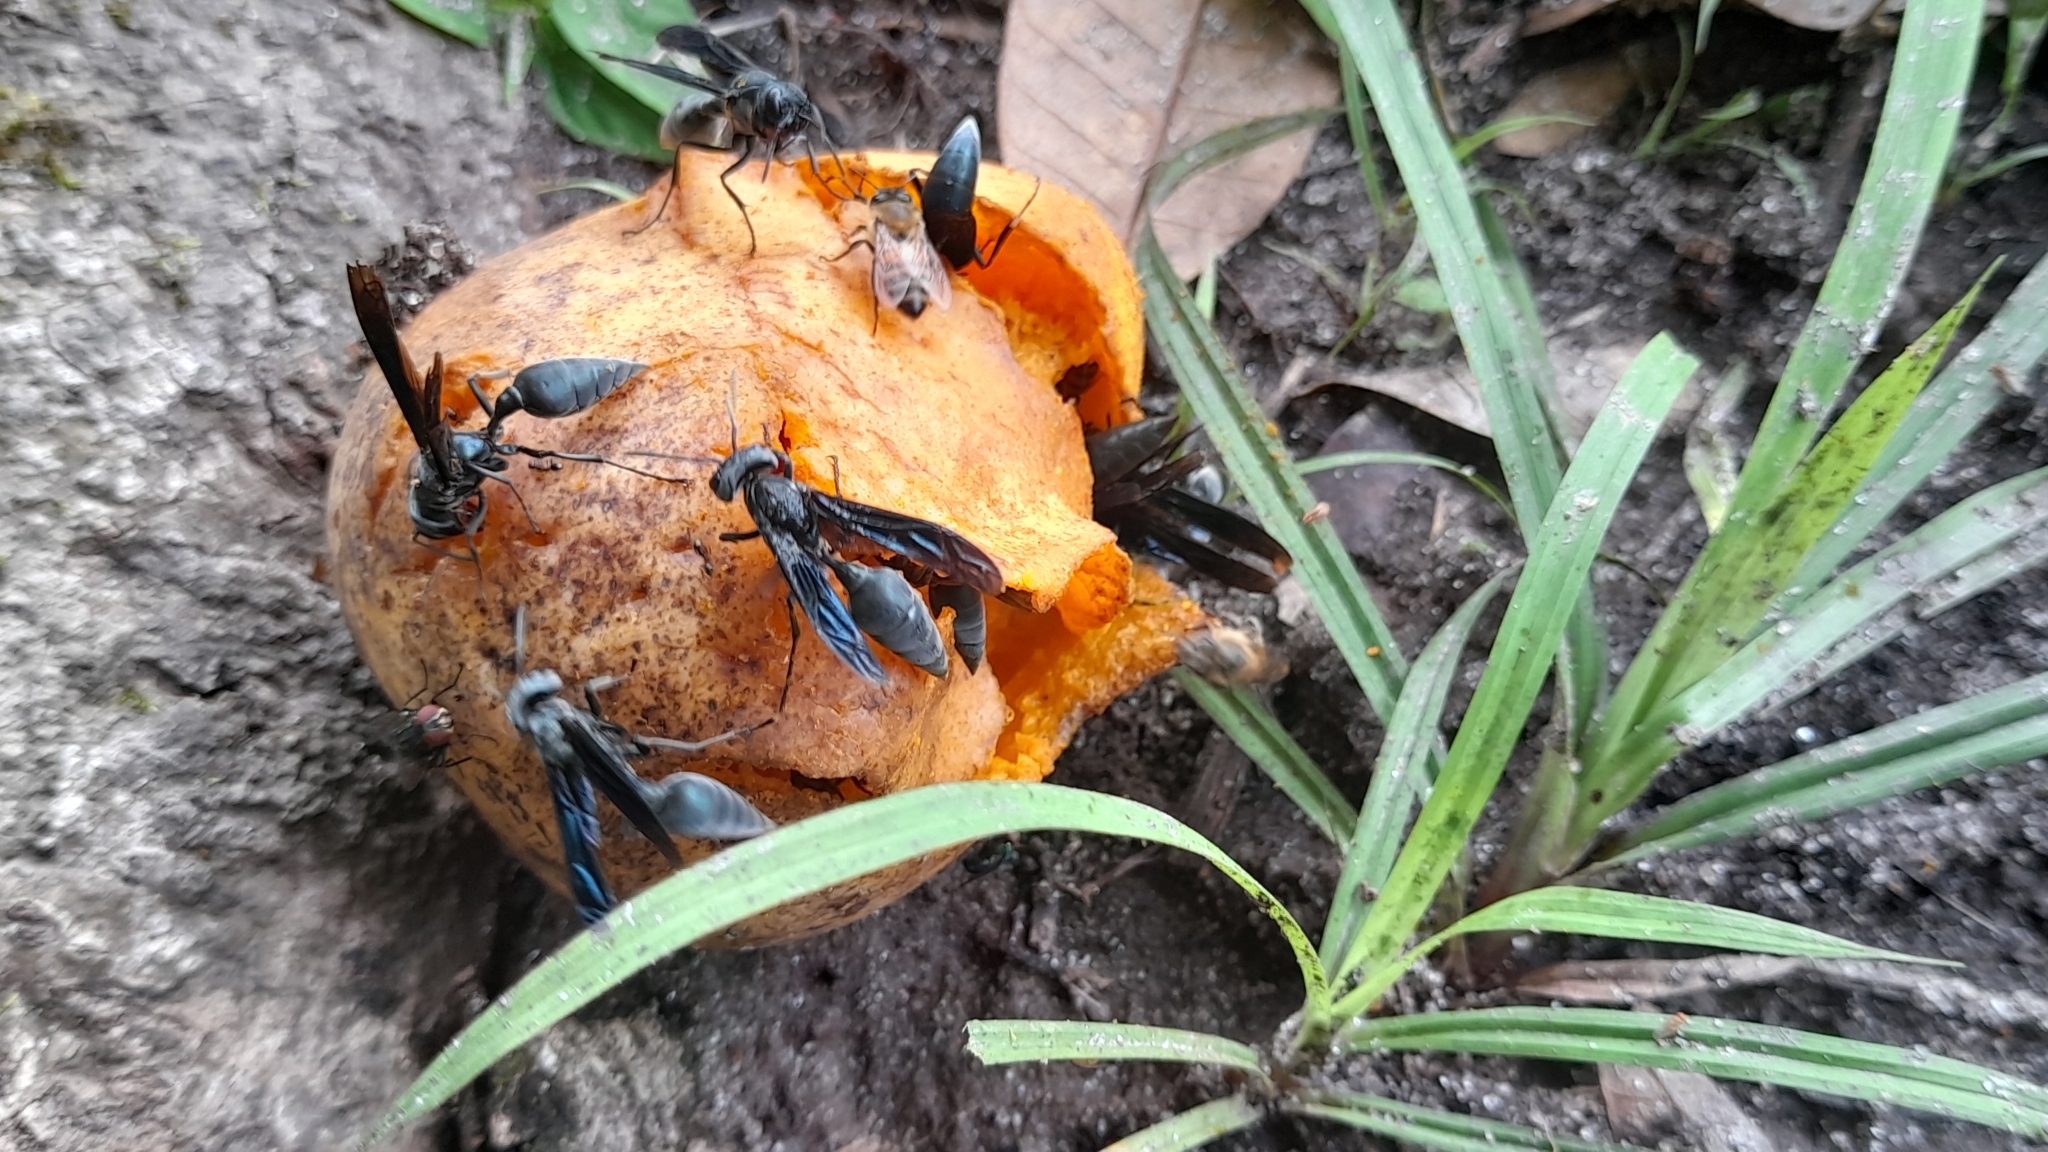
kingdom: Animalia
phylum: Arthropoda
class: Insecta
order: Hymenoptera
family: Vespidae
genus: Synoeca
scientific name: Synoeca septentrionalis
